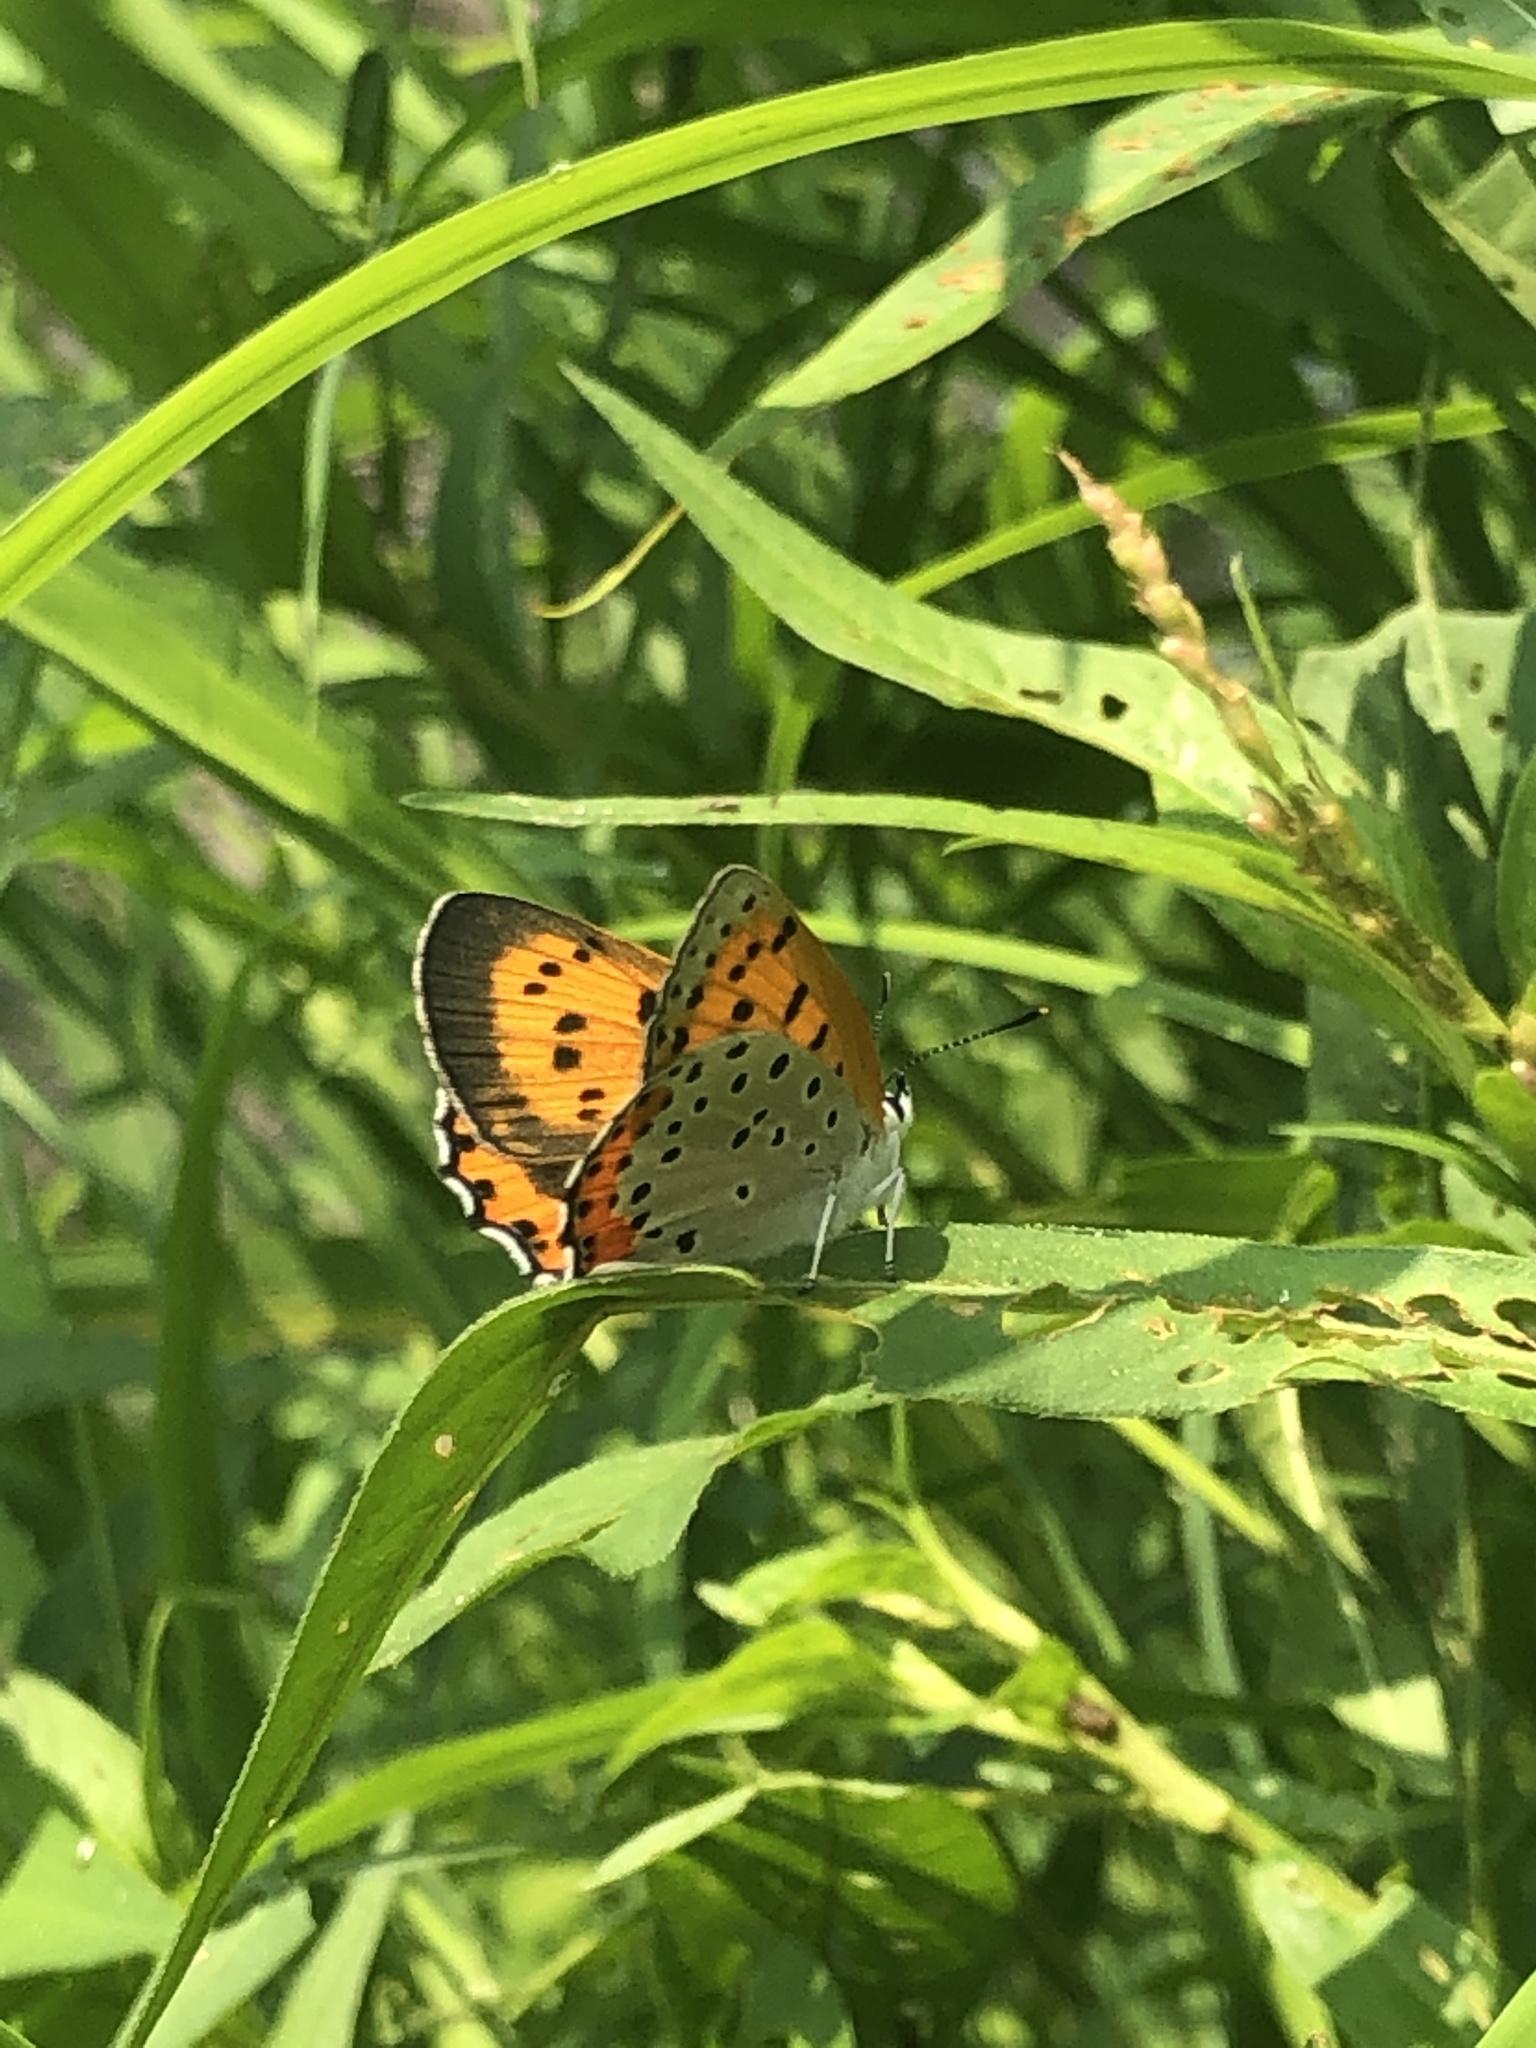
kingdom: Animalia
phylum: Arthropoda
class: Insecta
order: Lepidoptera
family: Lycaenidae
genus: Tharsalea
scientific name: Tharsalea hyllus
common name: Bronze copper
